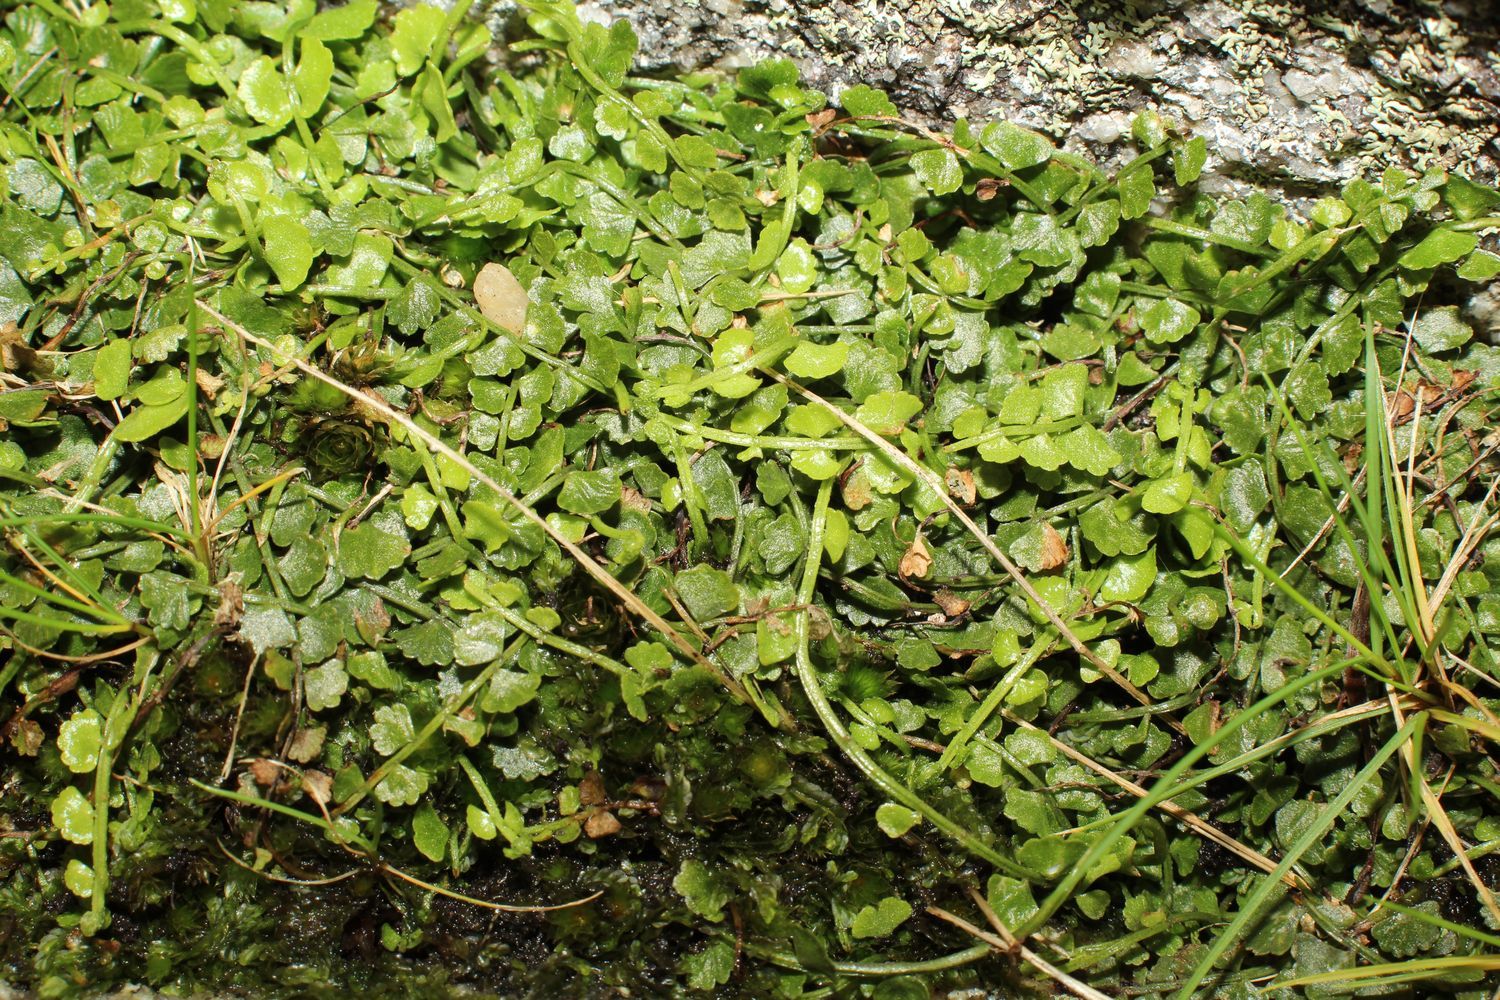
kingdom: Plantae
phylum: Tracheophyta
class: Polypodiopsida
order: Polypodiales
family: Aspleniaceae
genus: Asplenium
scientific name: Asplenium flabellifolium
